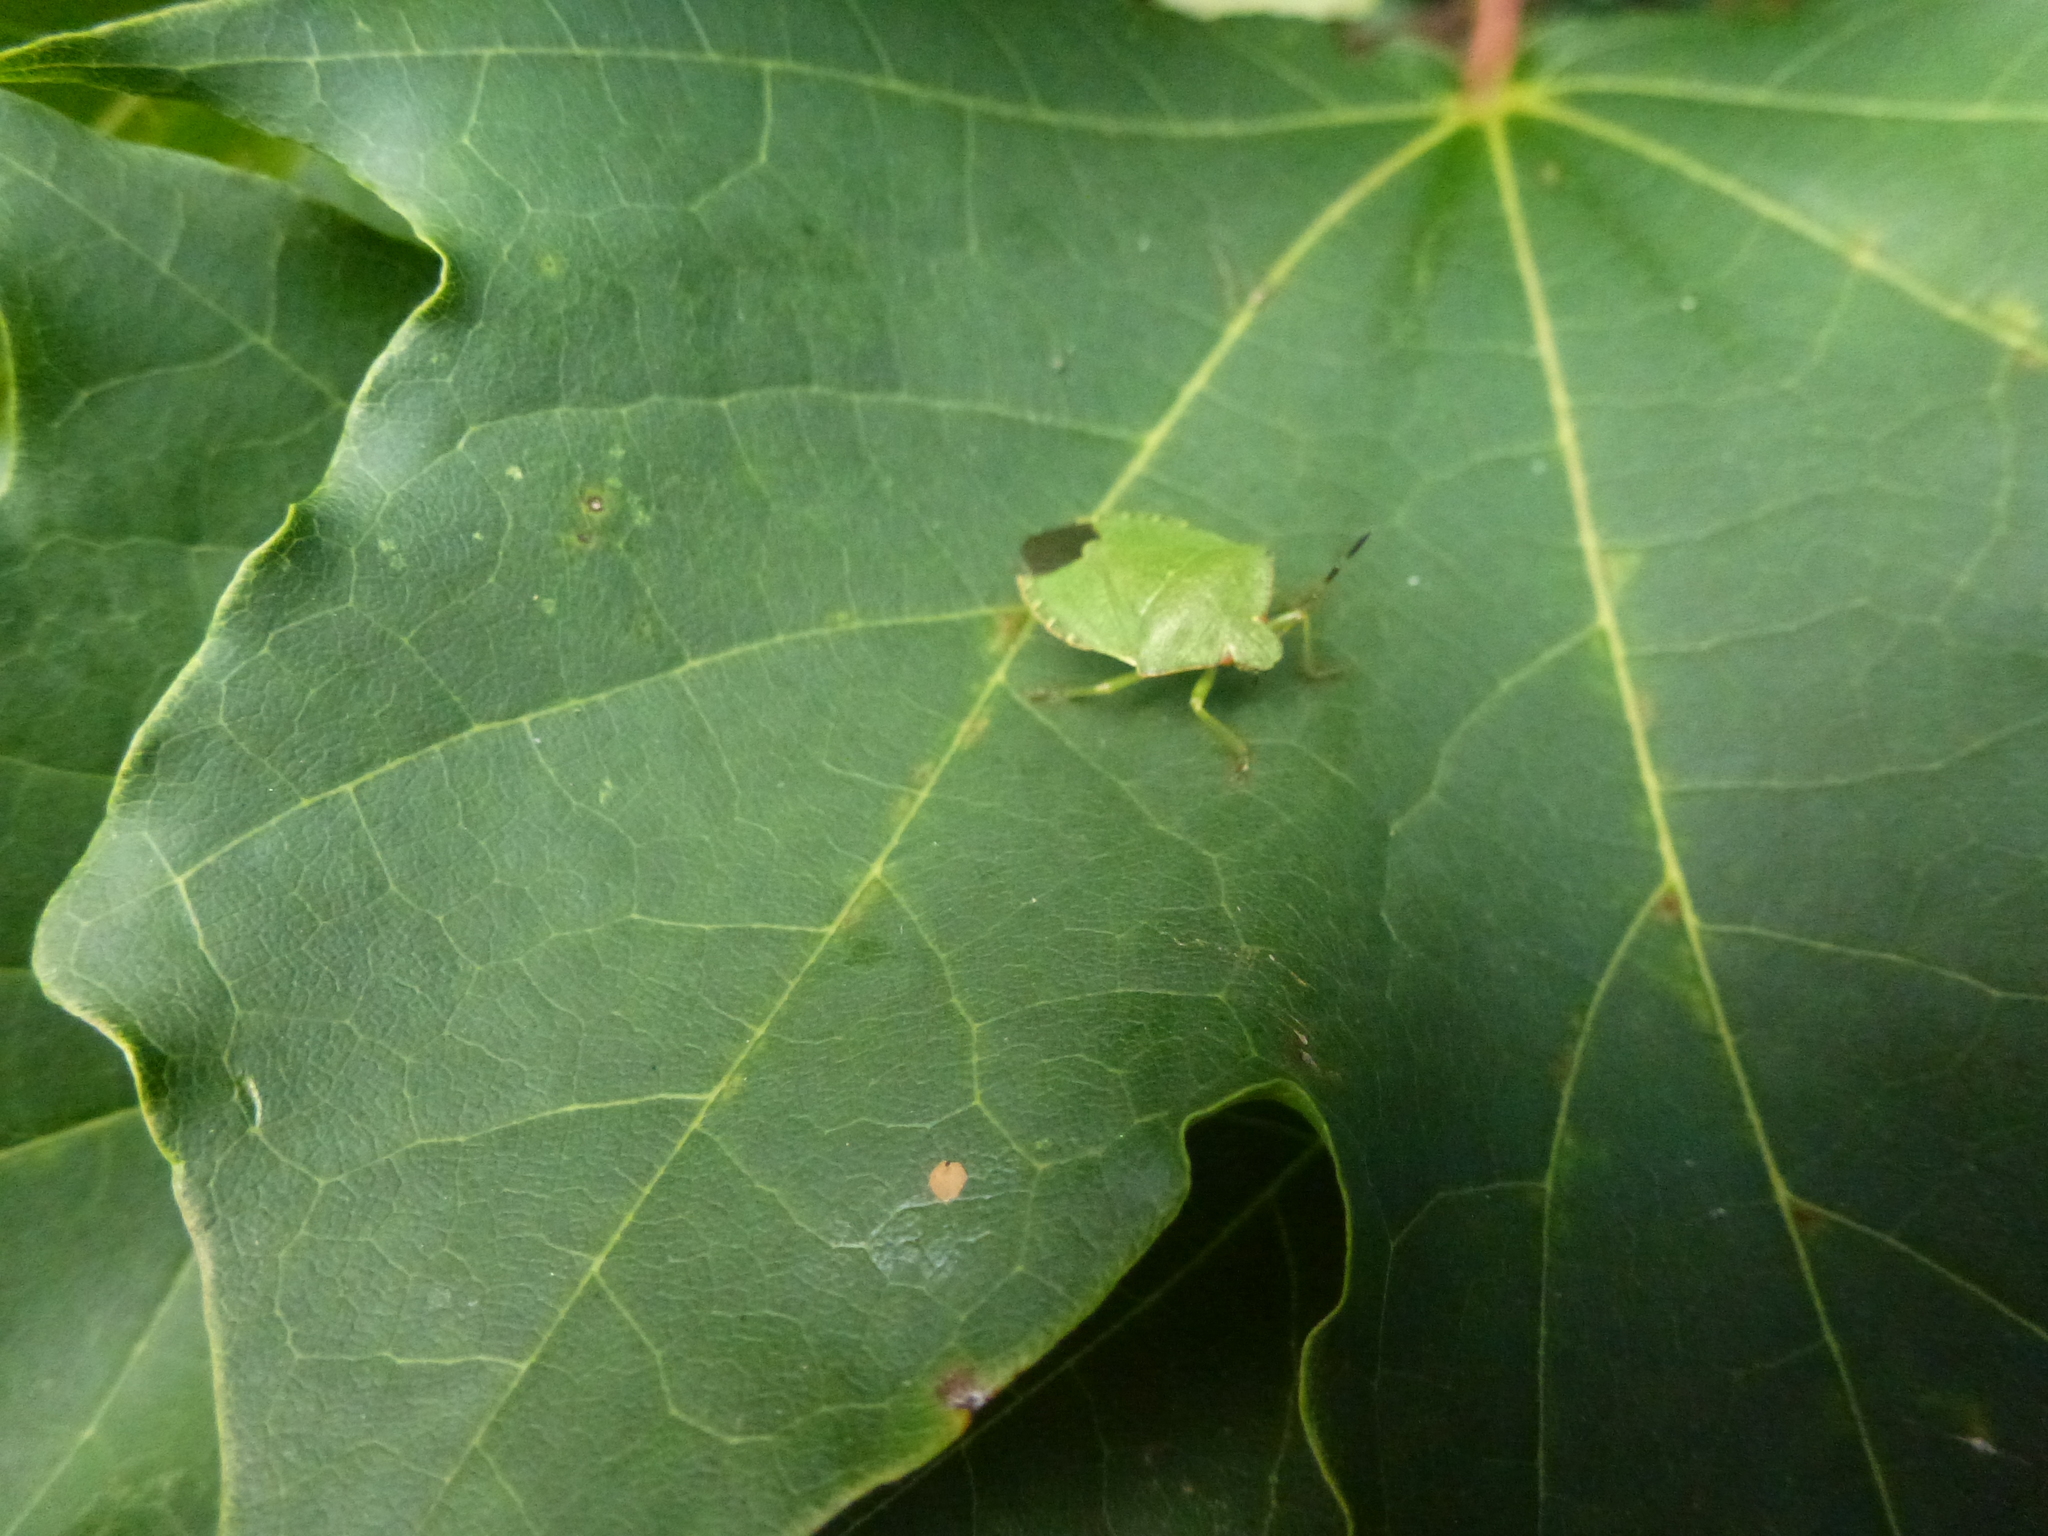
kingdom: Animalia
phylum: Arthropoda
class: Insecta
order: Hemiptera
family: Pentatomidae
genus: Palomena
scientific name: Palomena prasina
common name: Green shieldbug
